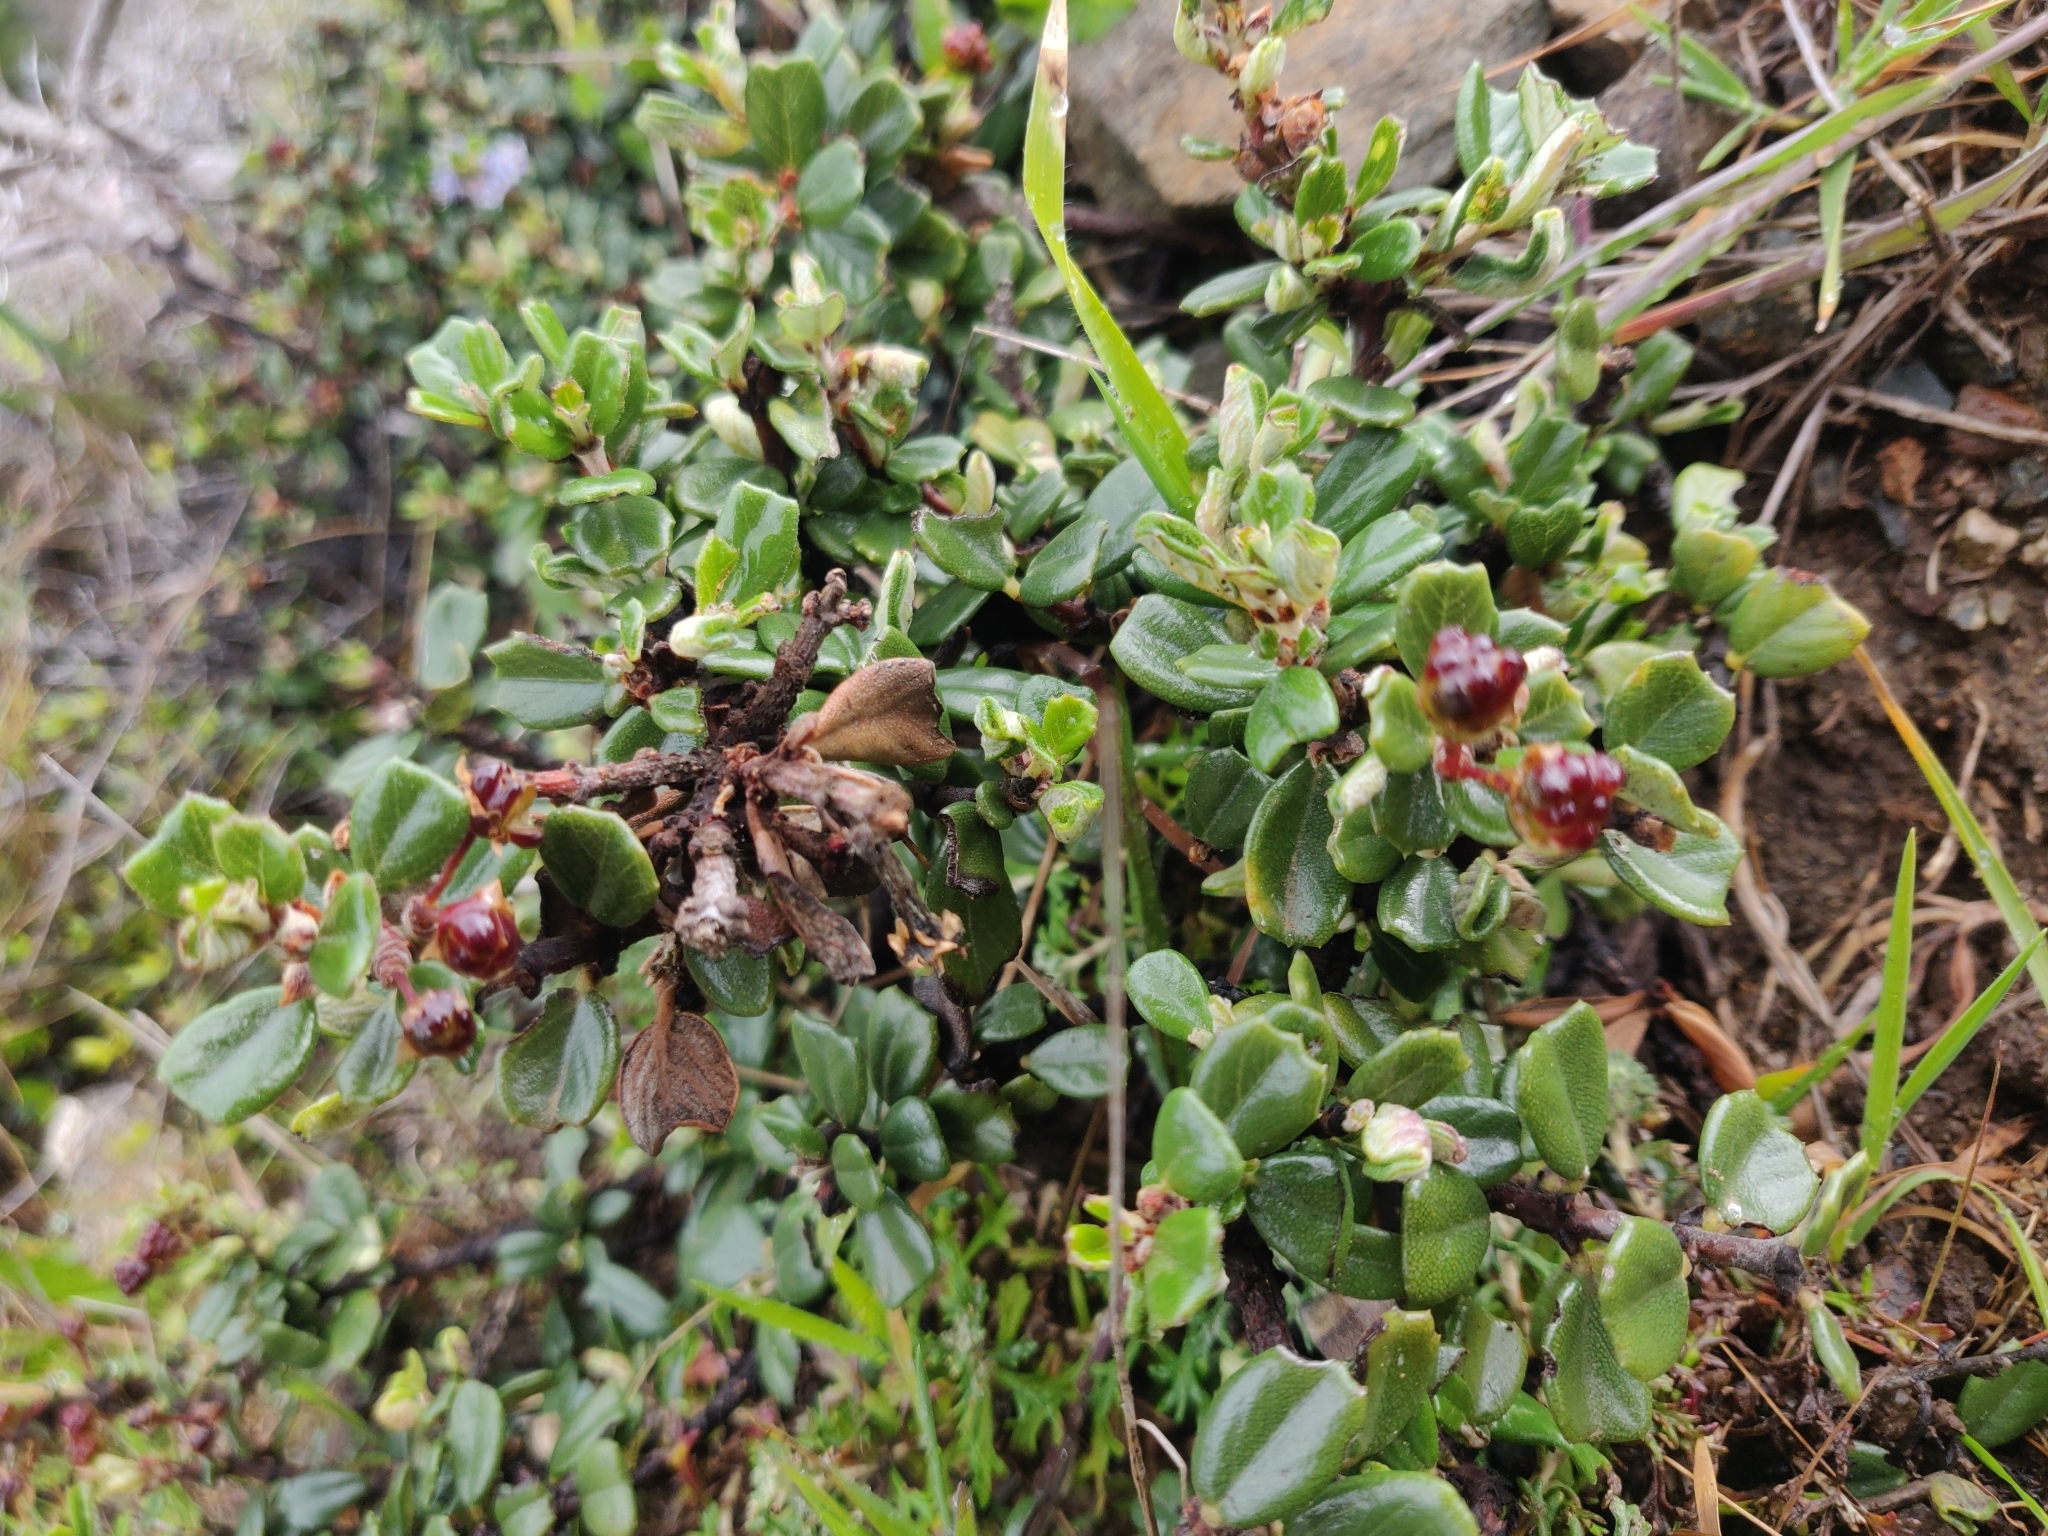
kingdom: Plantae
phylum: Tracheophyta
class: Magnoliopsida
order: Rosales
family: Rhamnaceae
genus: Ceanothus
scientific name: Ceanothus maritimus
